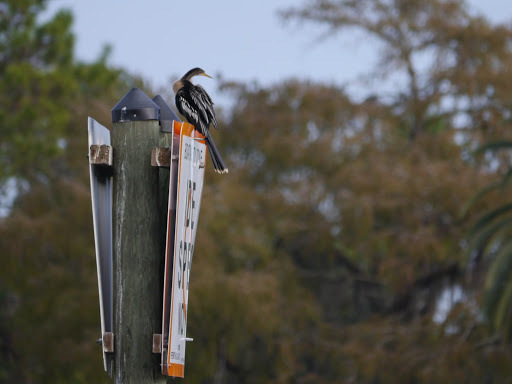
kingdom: Animalia
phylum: Chordata
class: Aves
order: Suliformes
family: Anhingidae
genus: Anhinga
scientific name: Anhinga anhinga
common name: Anhinga
